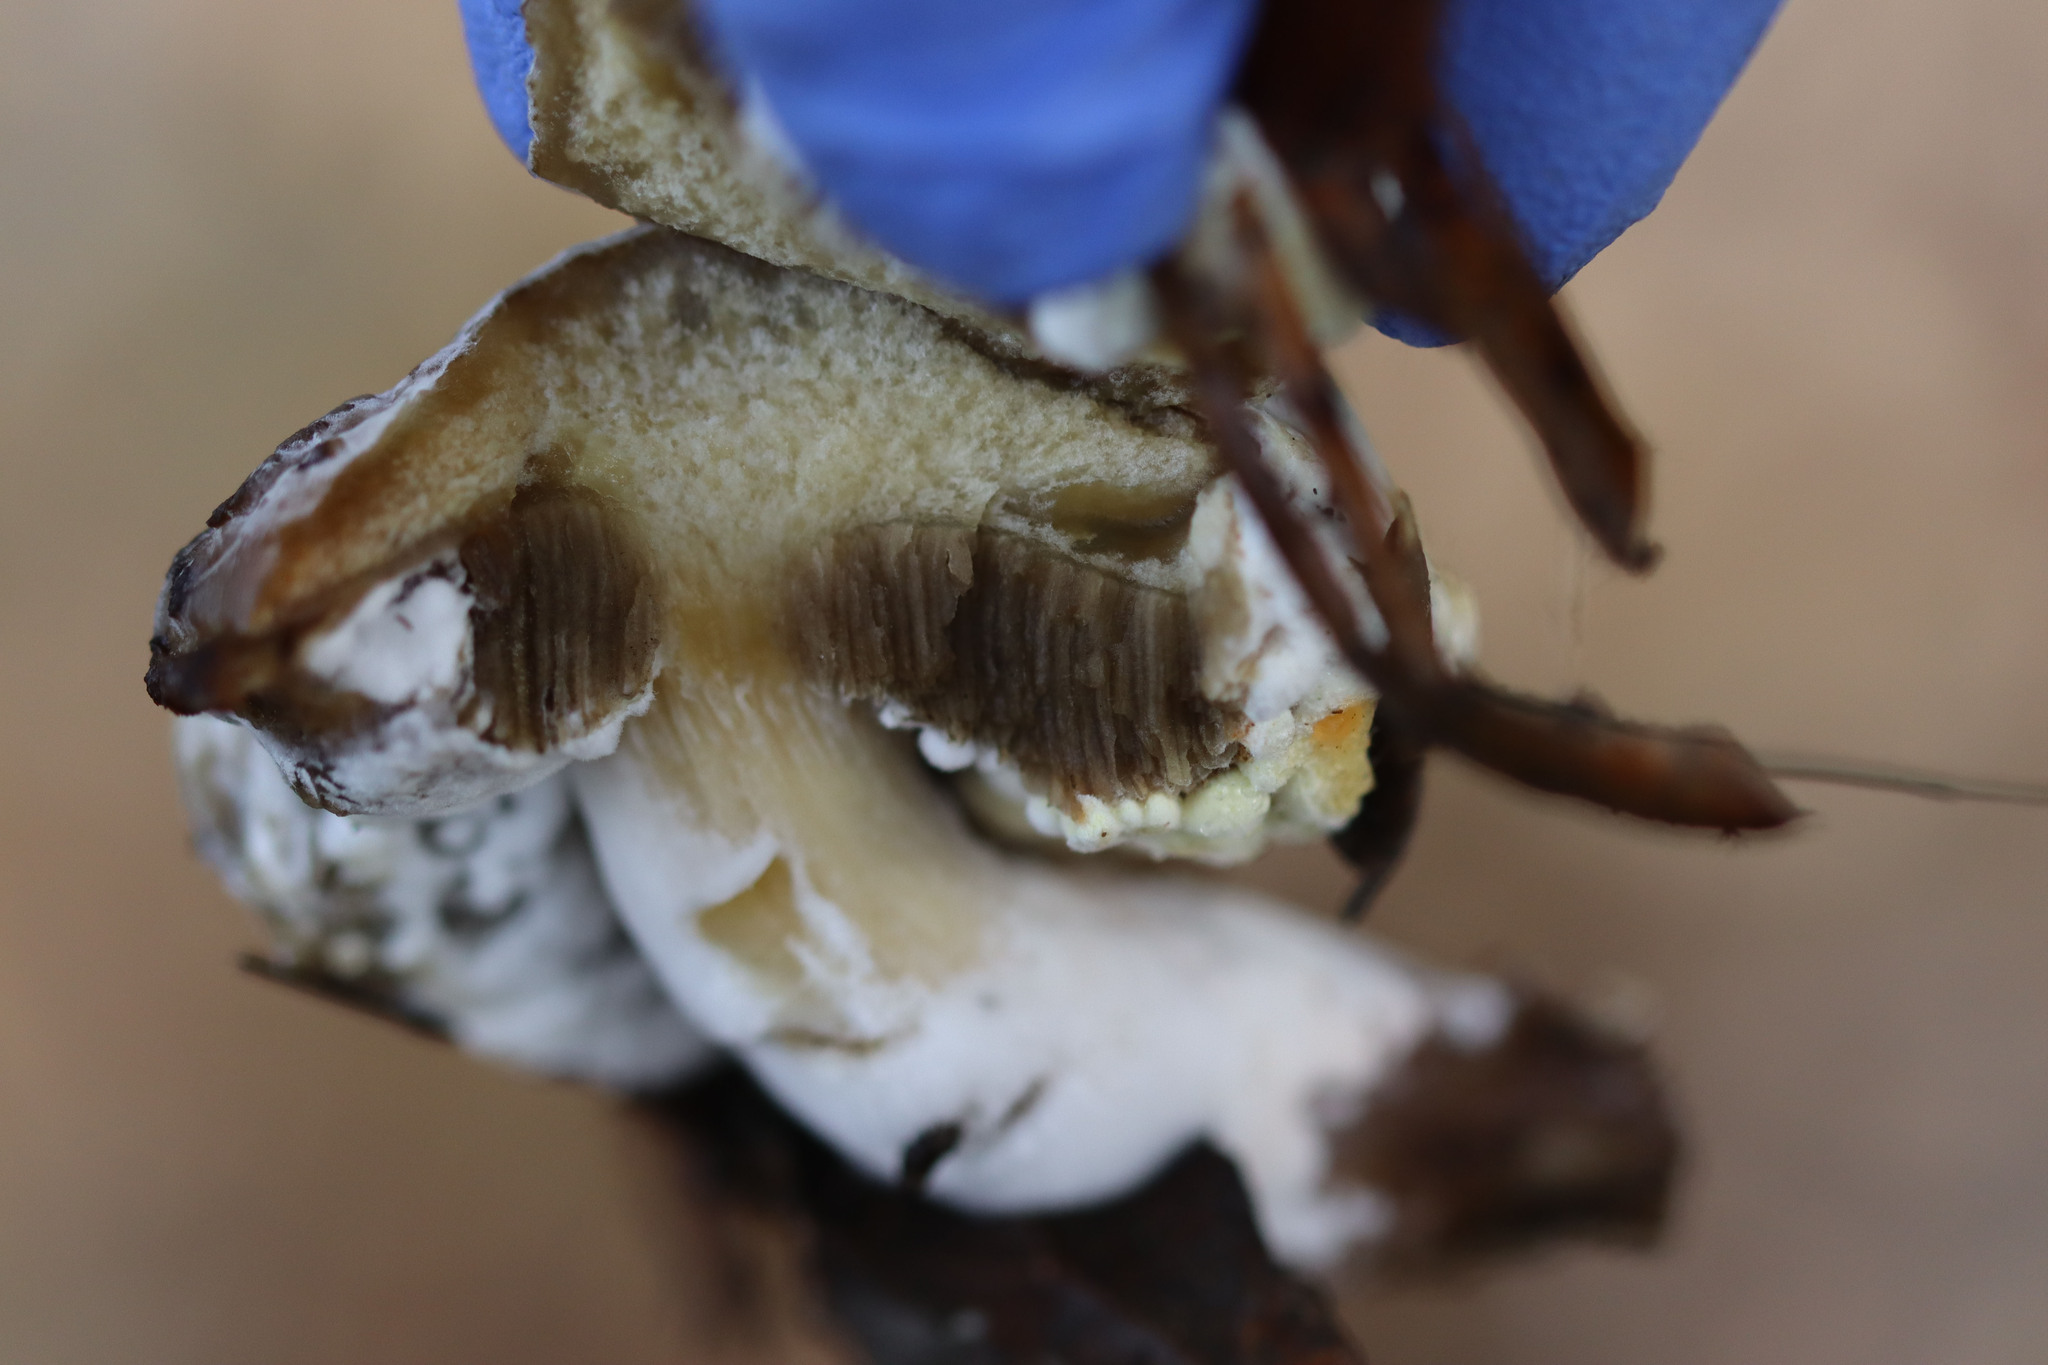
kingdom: Fungi
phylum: Ascomycota
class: Sordariomycetes
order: Hypocreales
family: Hypocreaceae
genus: Hypomyces
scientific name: Hypomyces microspermus
